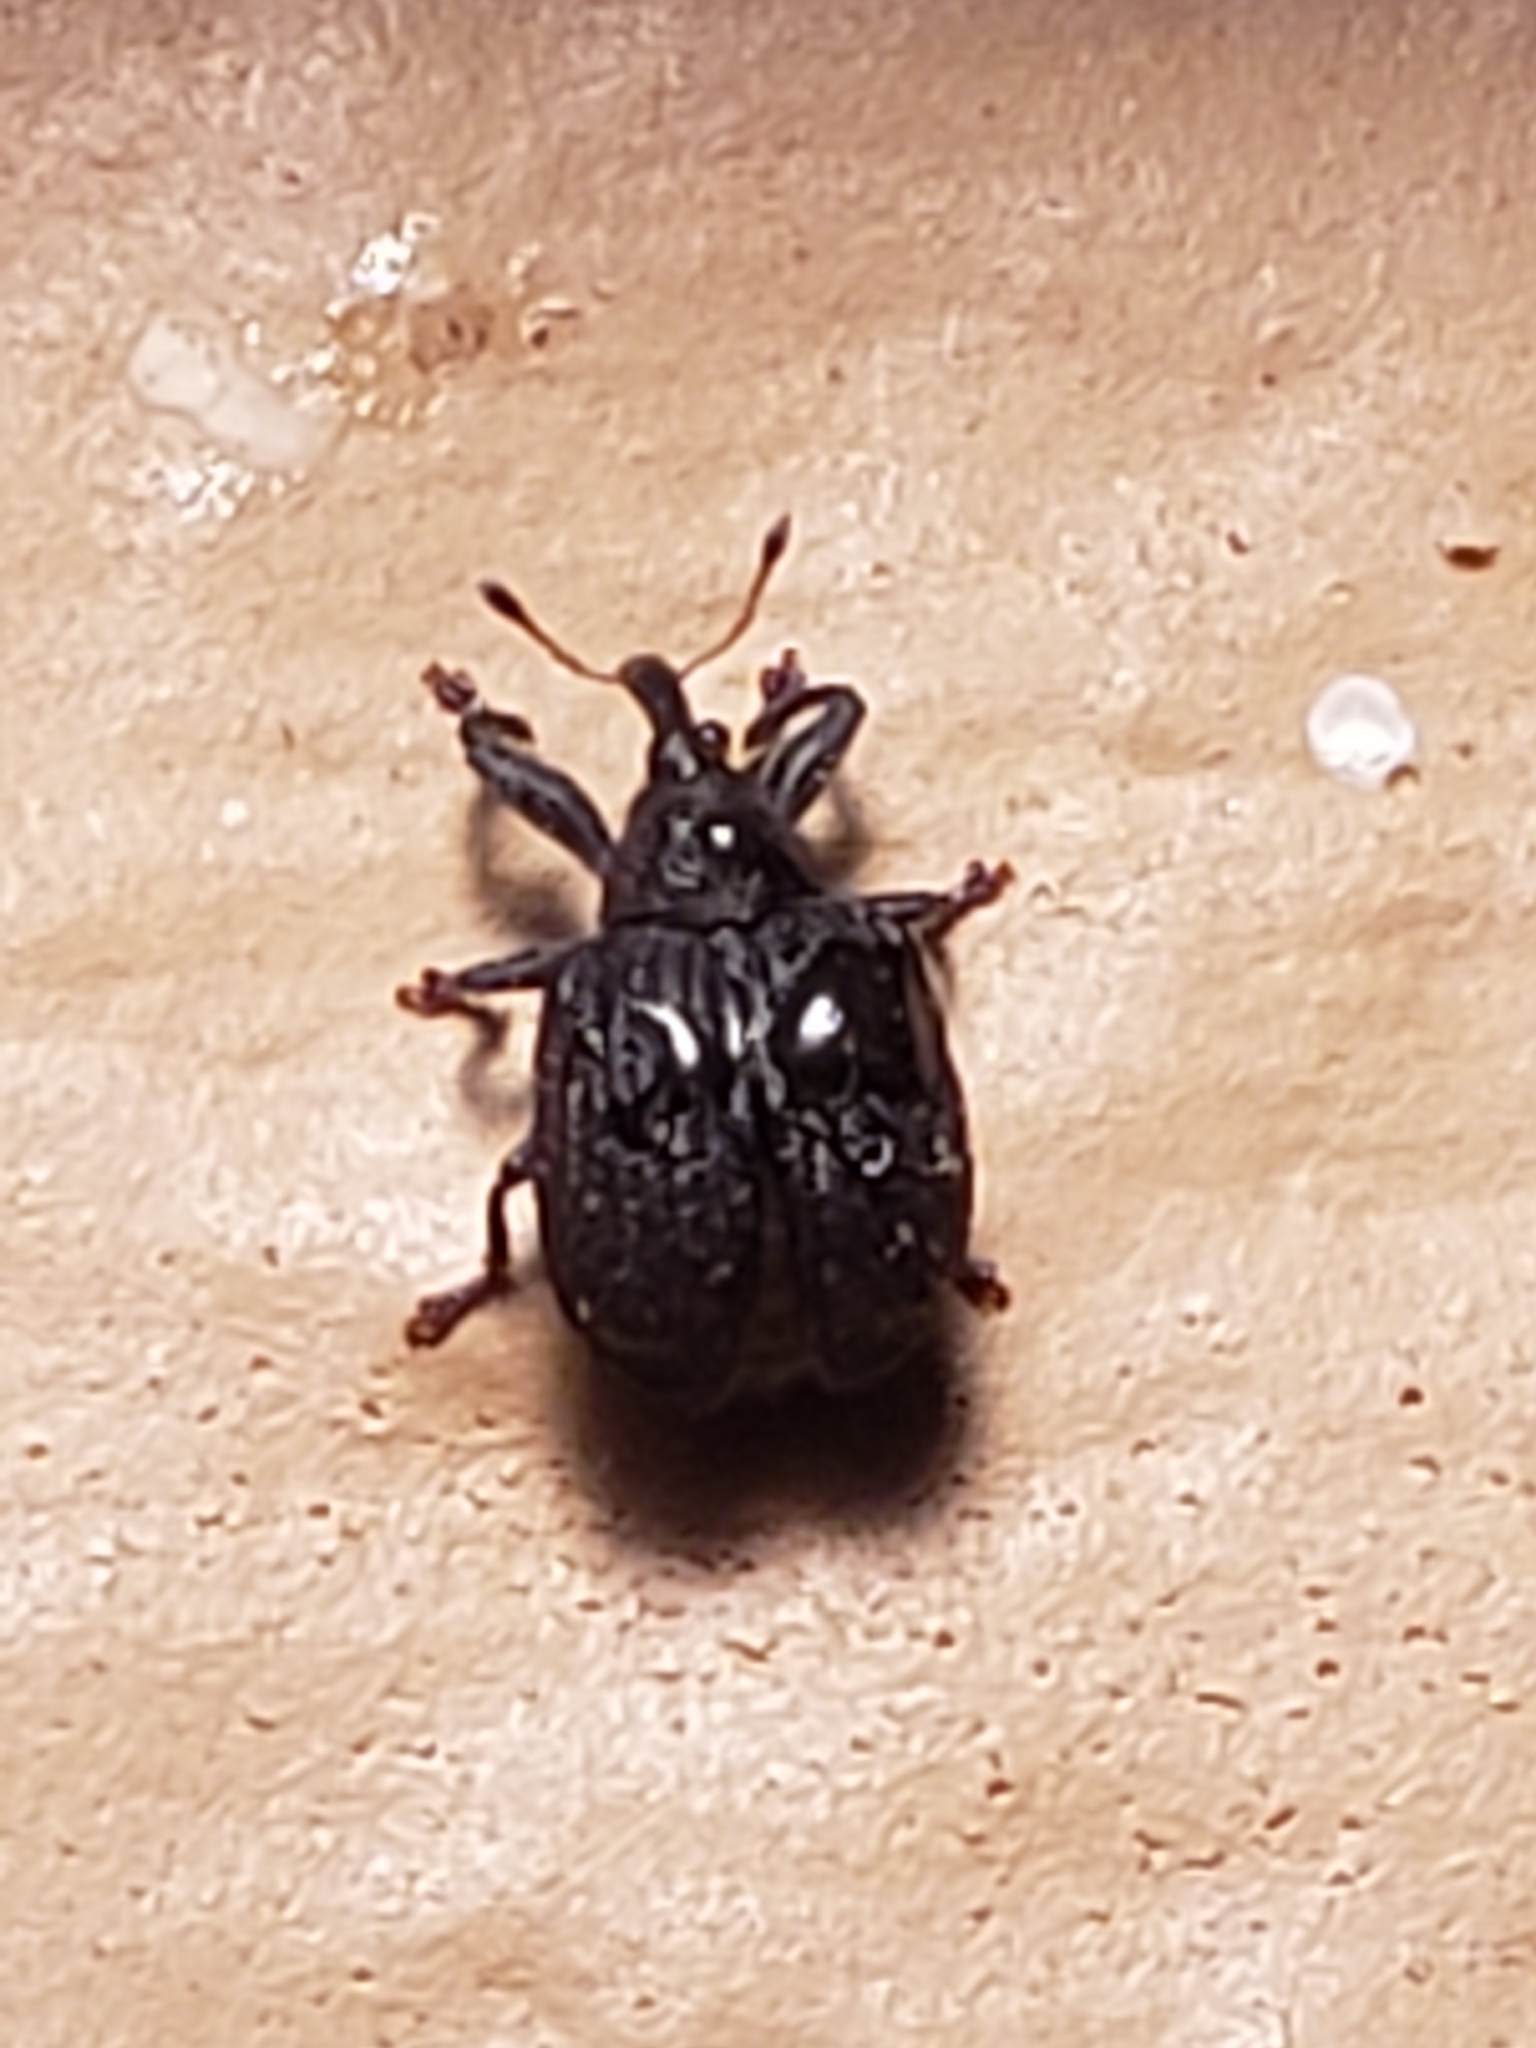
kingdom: Animalia
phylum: Arthropoda
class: Insecta
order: Coleoptera
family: Curculionidae
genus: Odontopus
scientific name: Odontopus calceatus
